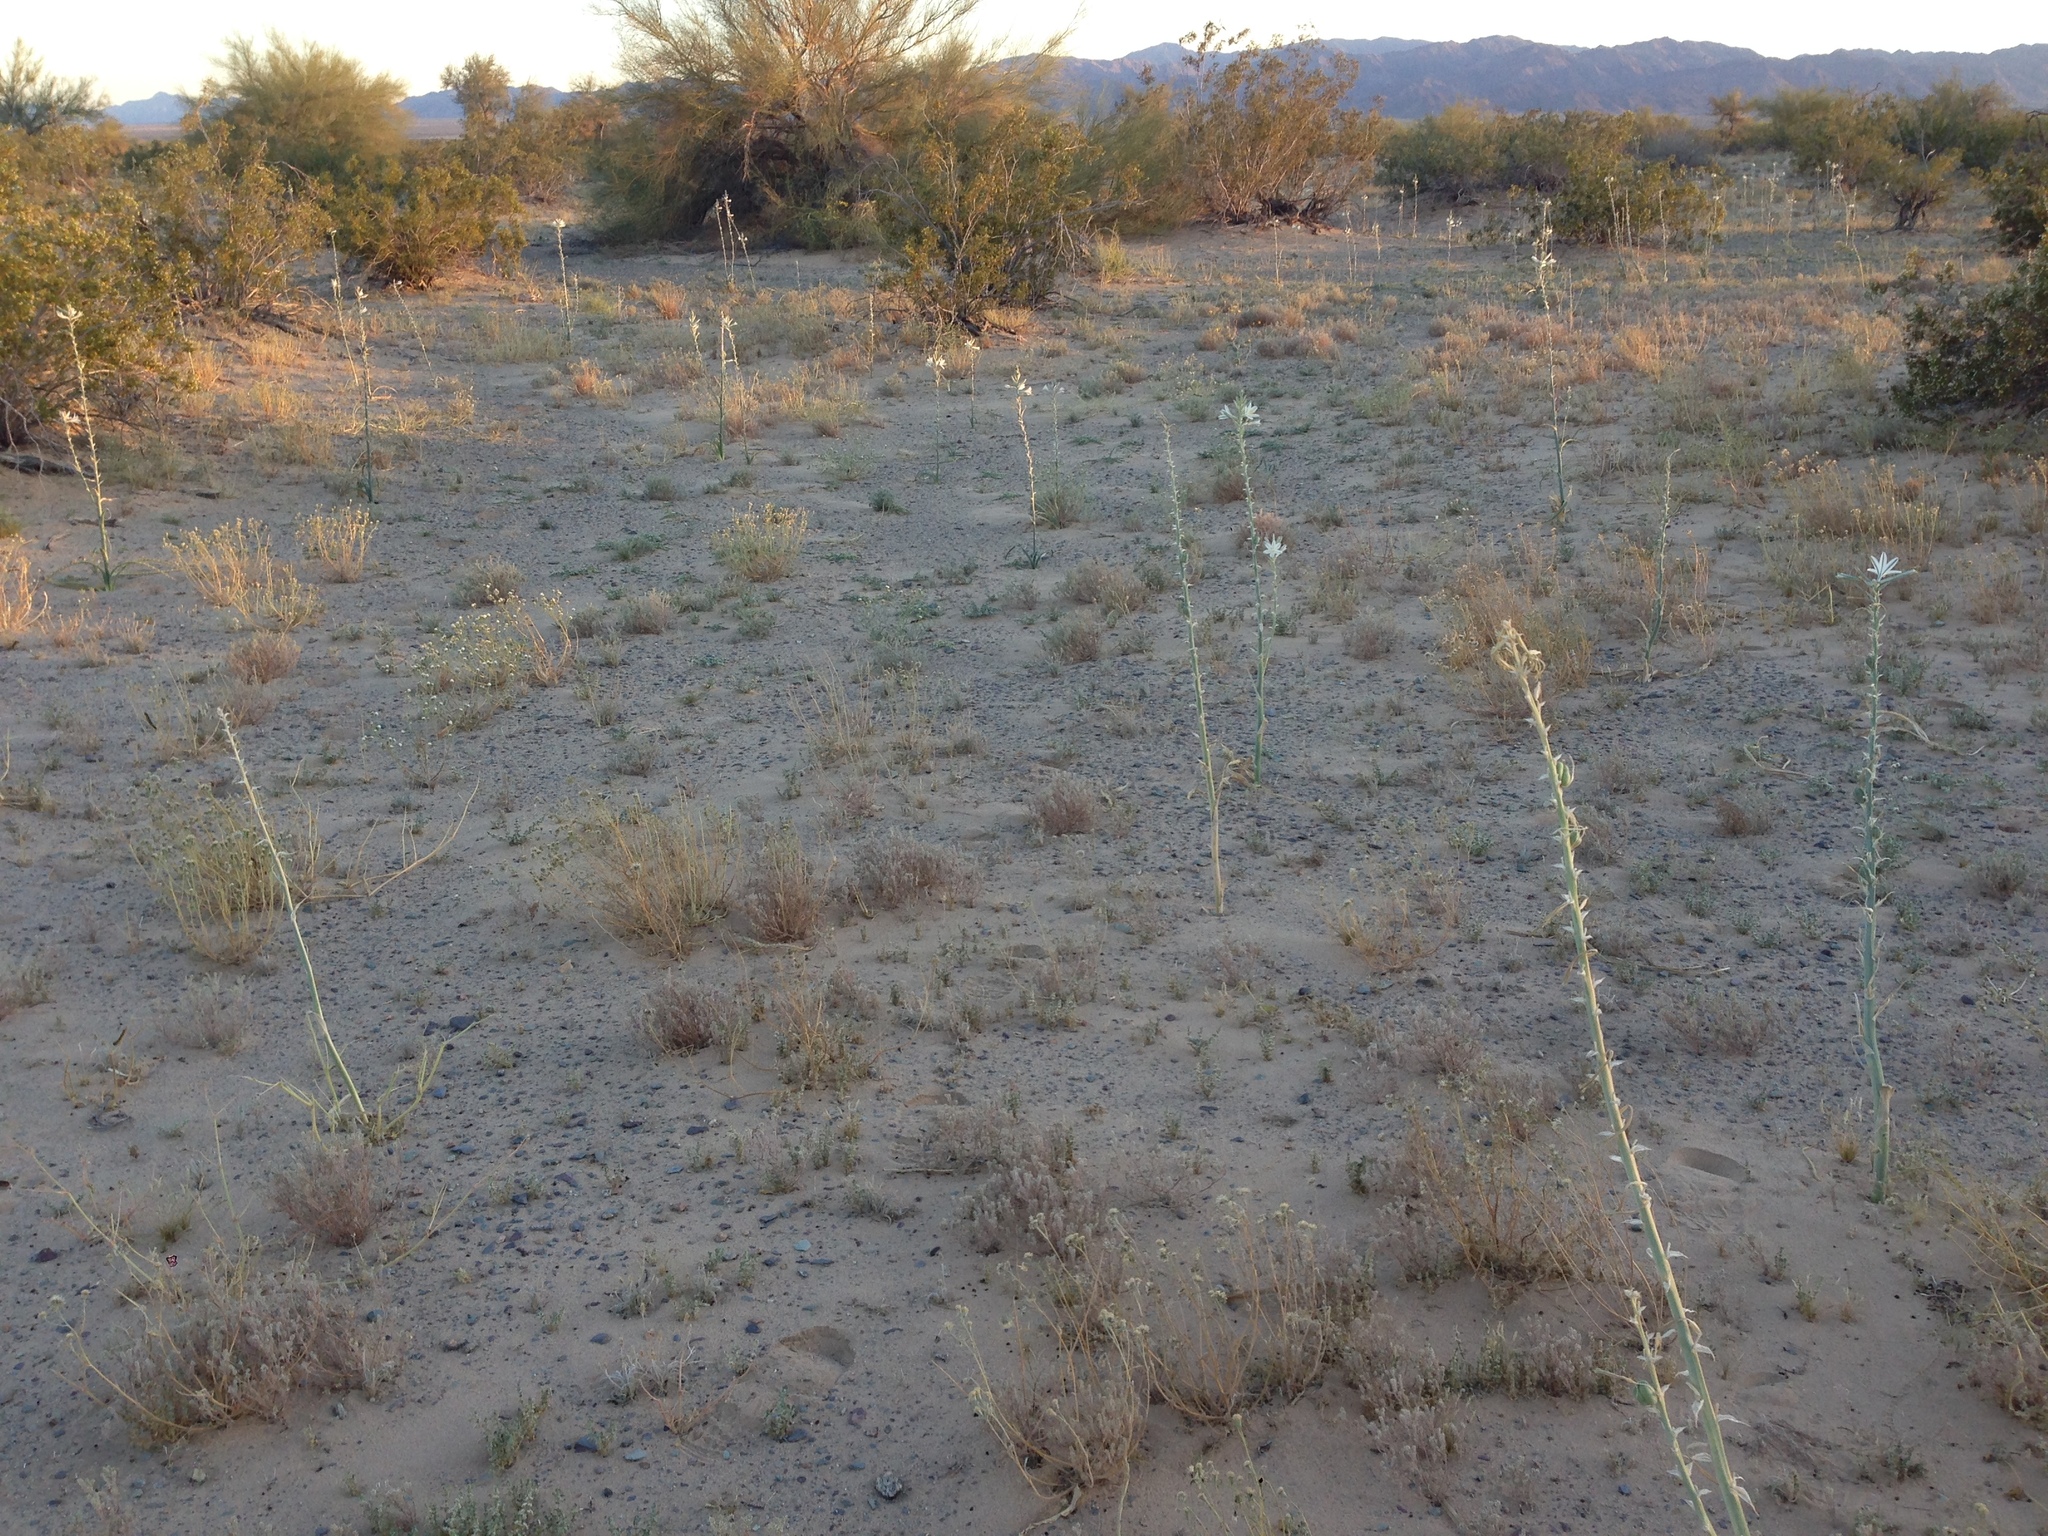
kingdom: Plantae
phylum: Tracheophyta
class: Liliopsida
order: Asparagales
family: Asparagaceae
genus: Hesperocallis
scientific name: Hesperocallis undulata
